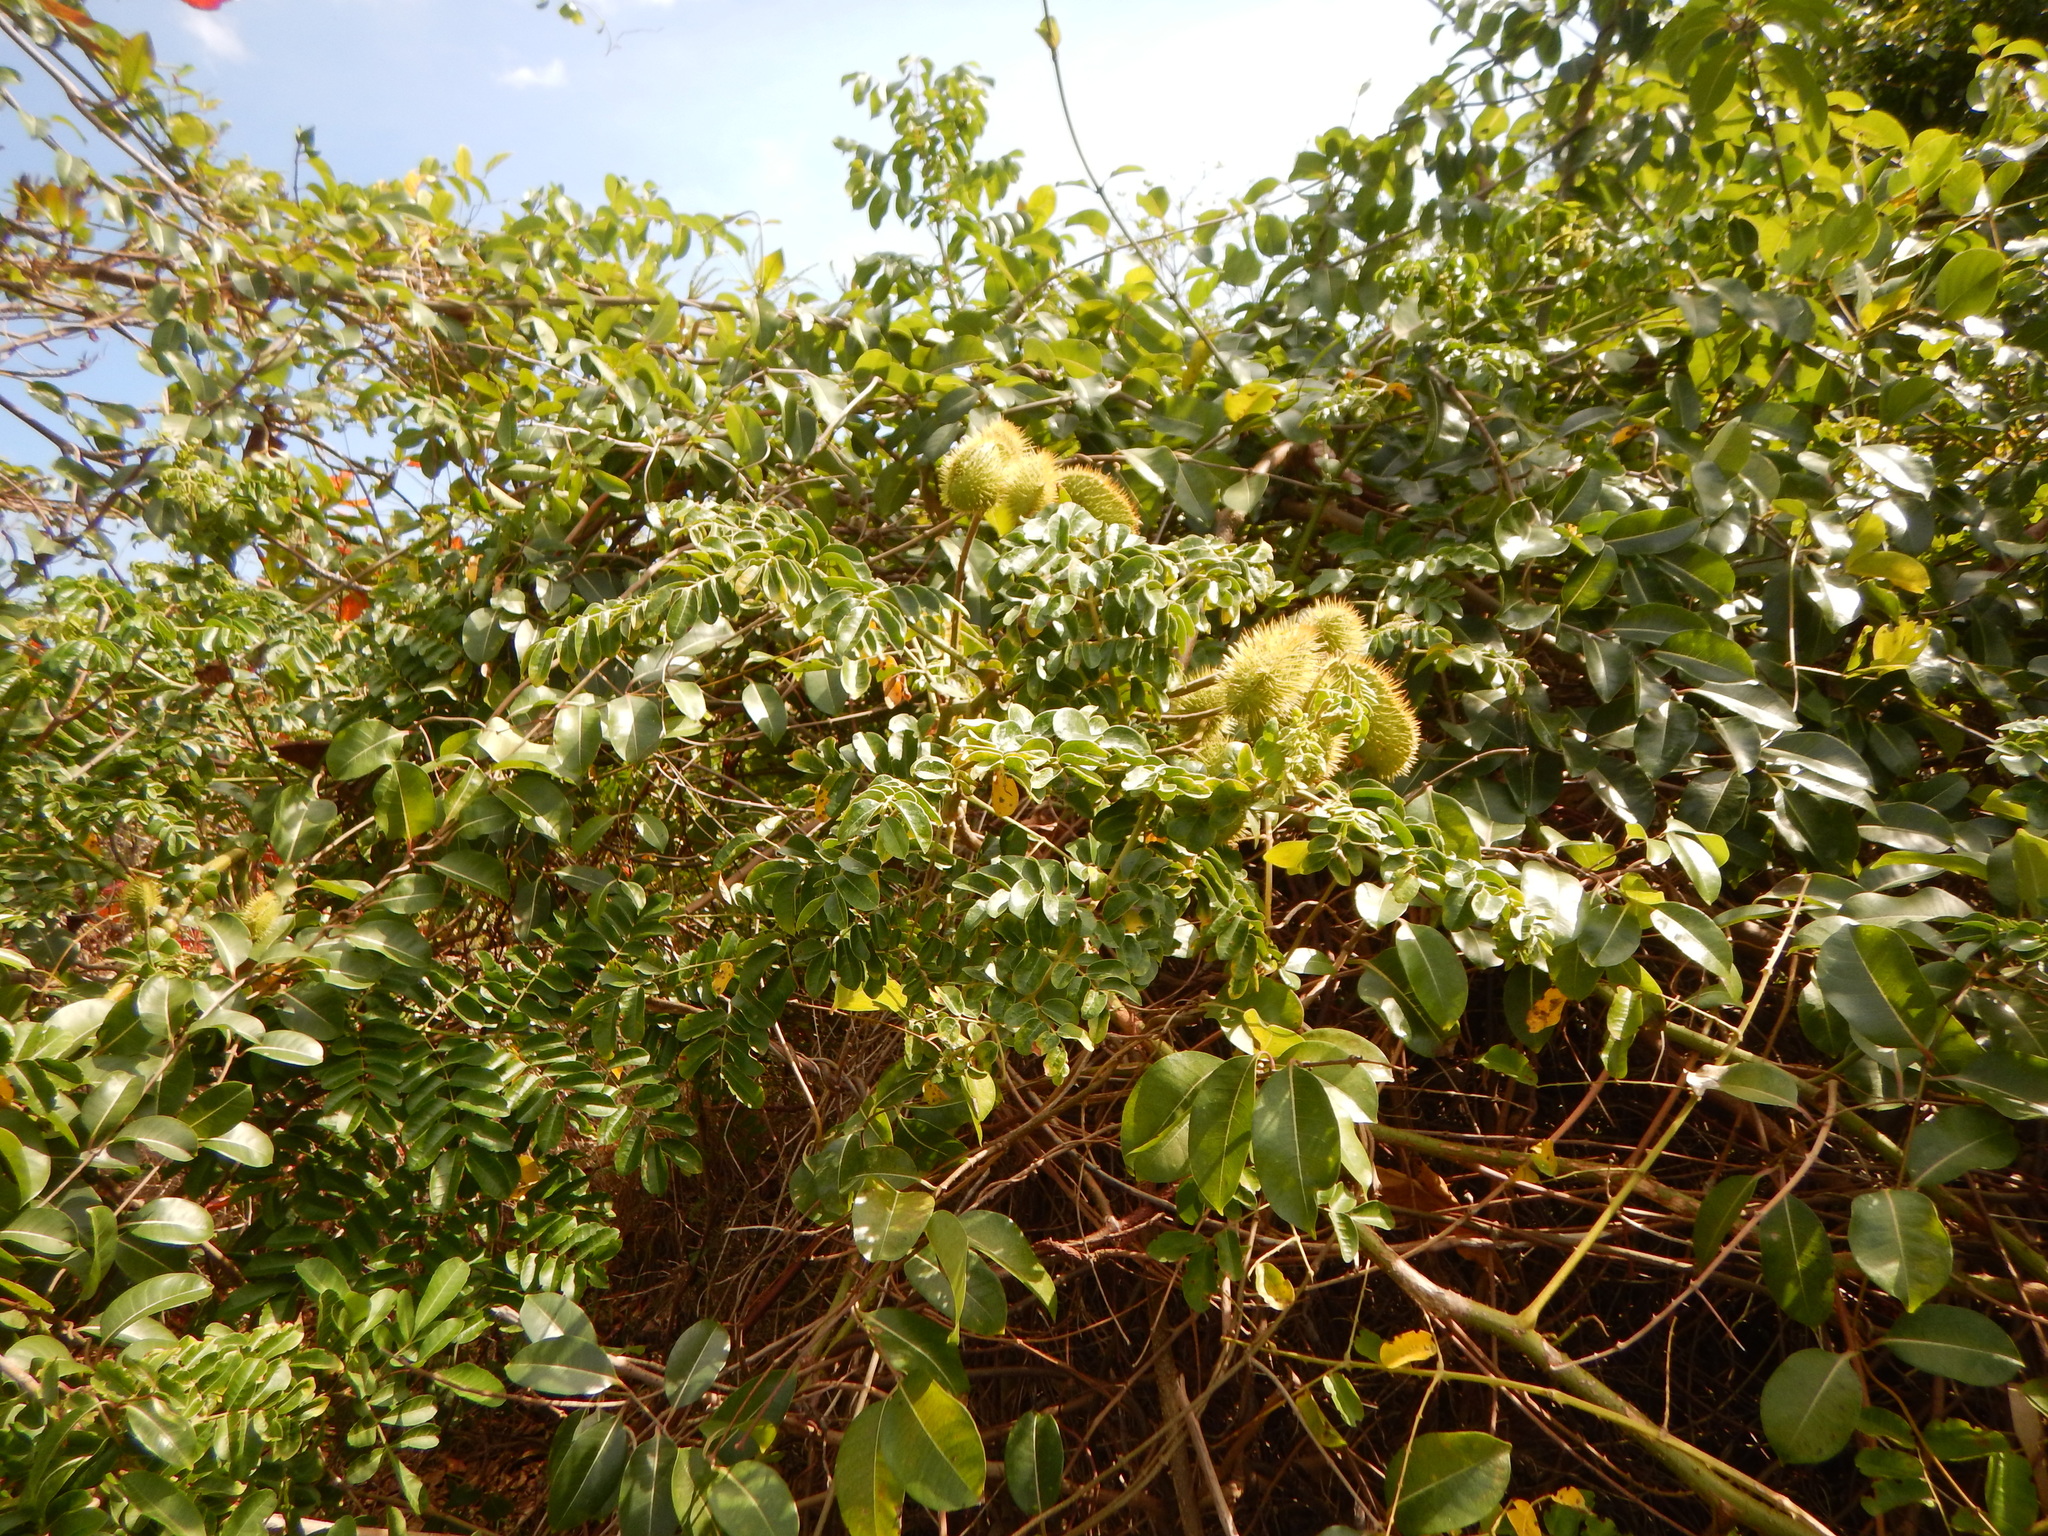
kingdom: Plantae
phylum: Tracheophyta
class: Magnoliopsida
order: Fabales
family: Fabaceae
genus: Guilandina
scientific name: Guilandina bonduc
